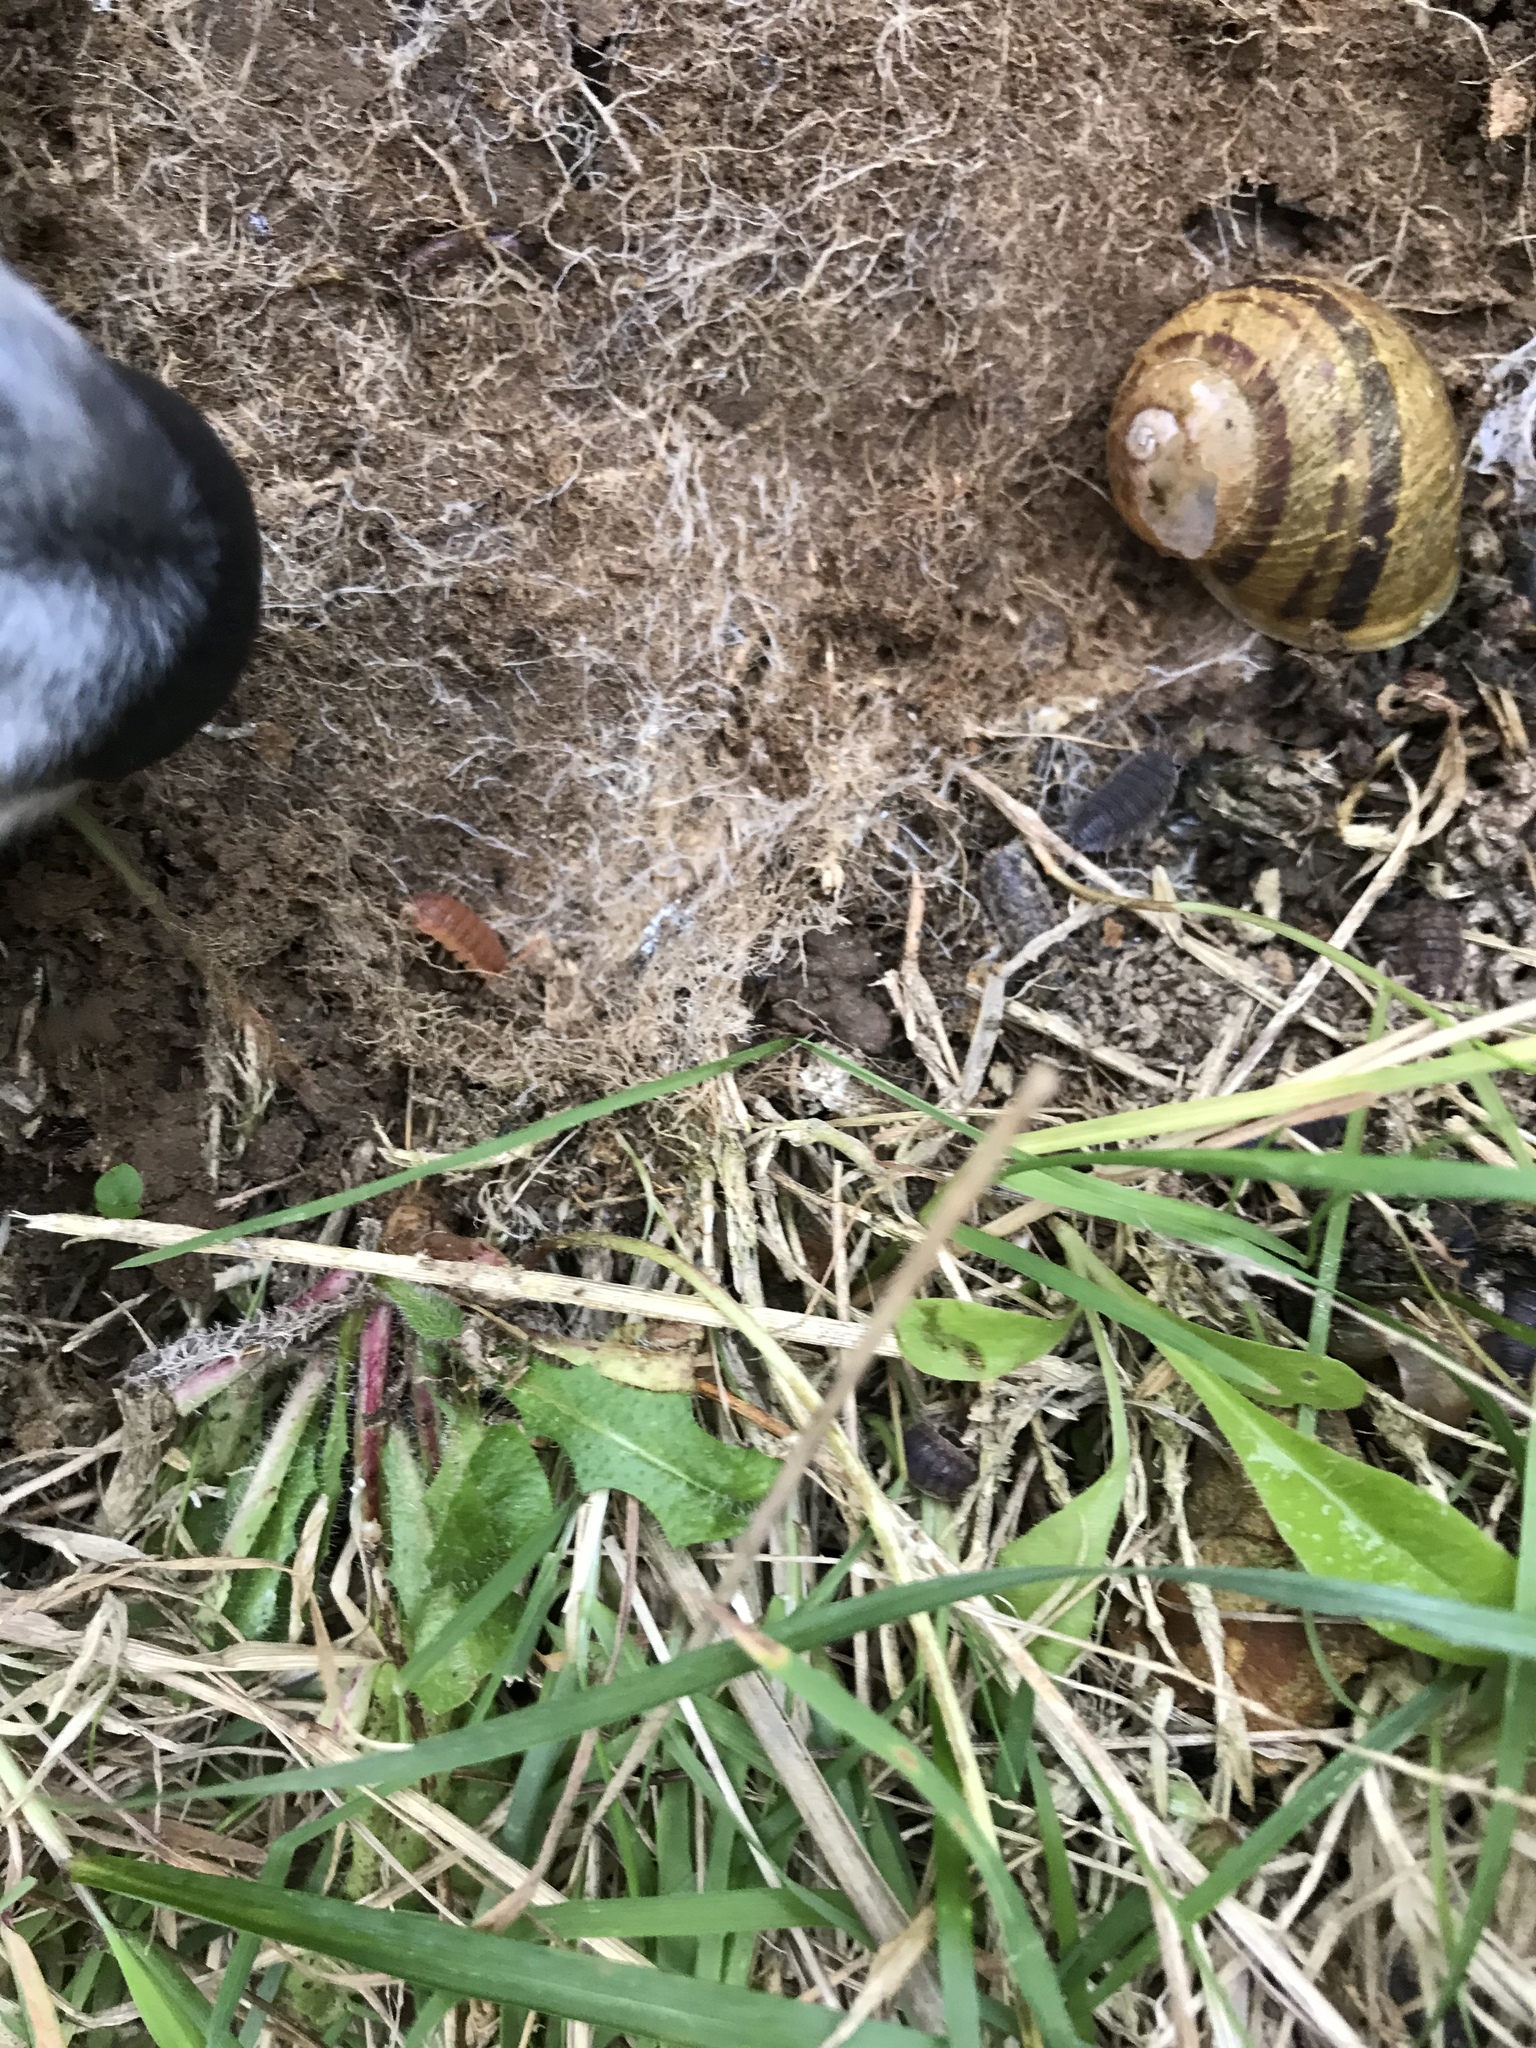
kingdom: Animalia
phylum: Mollusca
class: Gastropoda
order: Stylommatophora
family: Helicidae
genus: Cornu
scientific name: Cornu aspersum
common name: Brown garden snail
